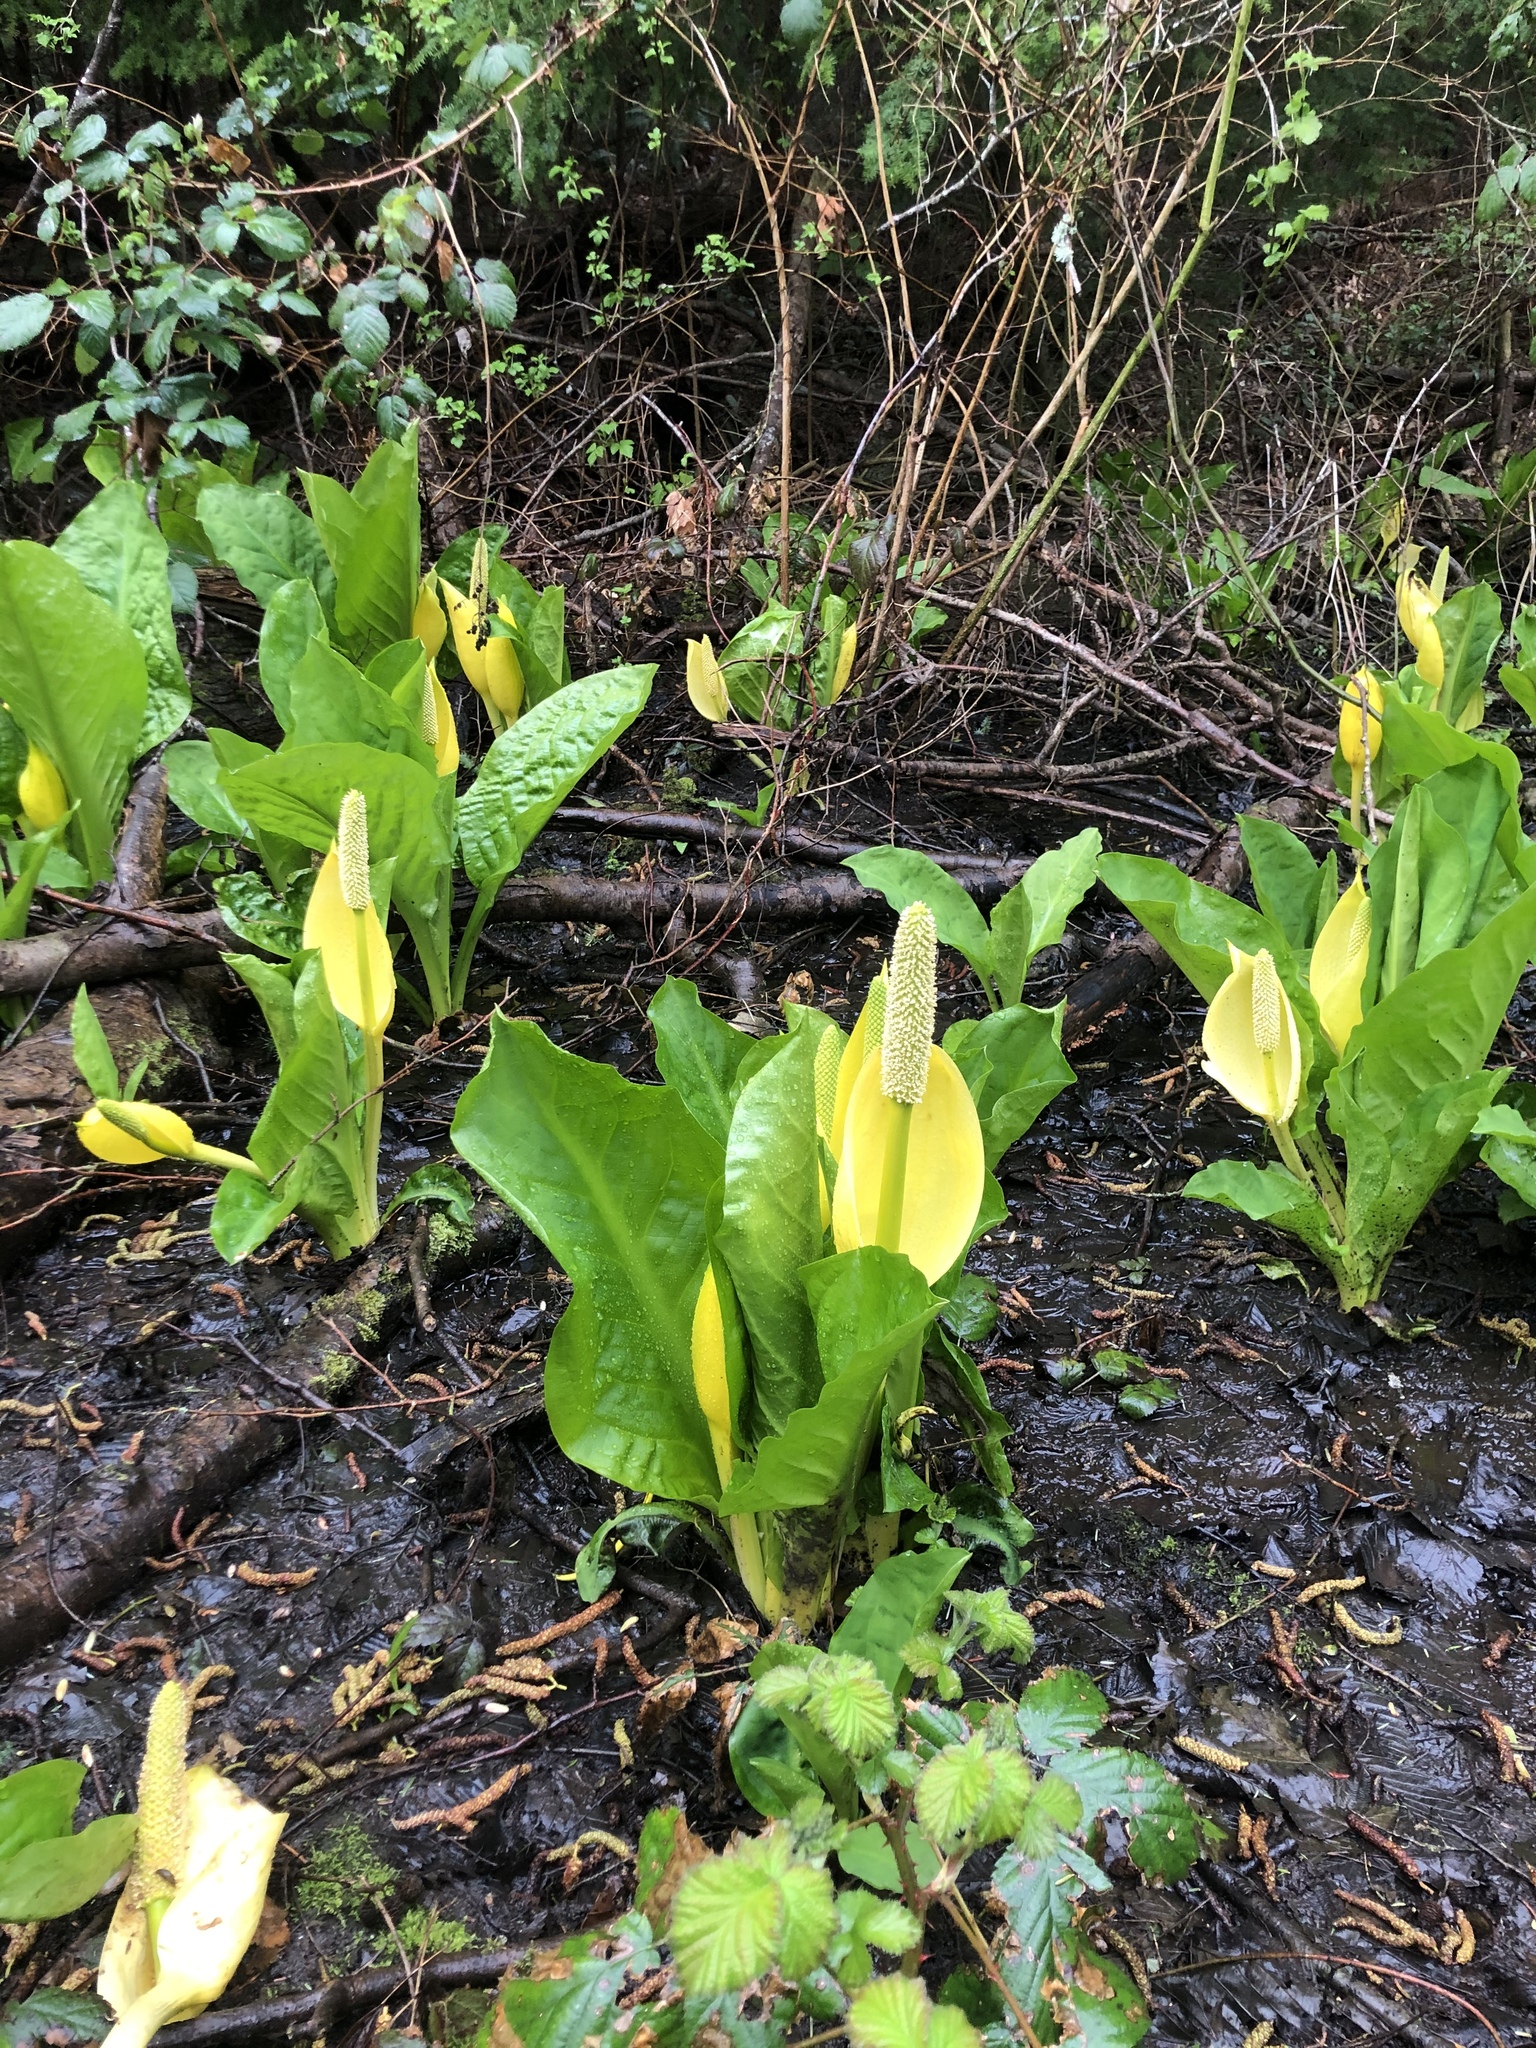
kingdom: Plantae
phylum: Tracheophyta
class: Liliopsida
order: Alismatales
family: Araceae
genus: Lysichiton
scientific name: Lysichiton americanus
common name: American skunk cabbage
